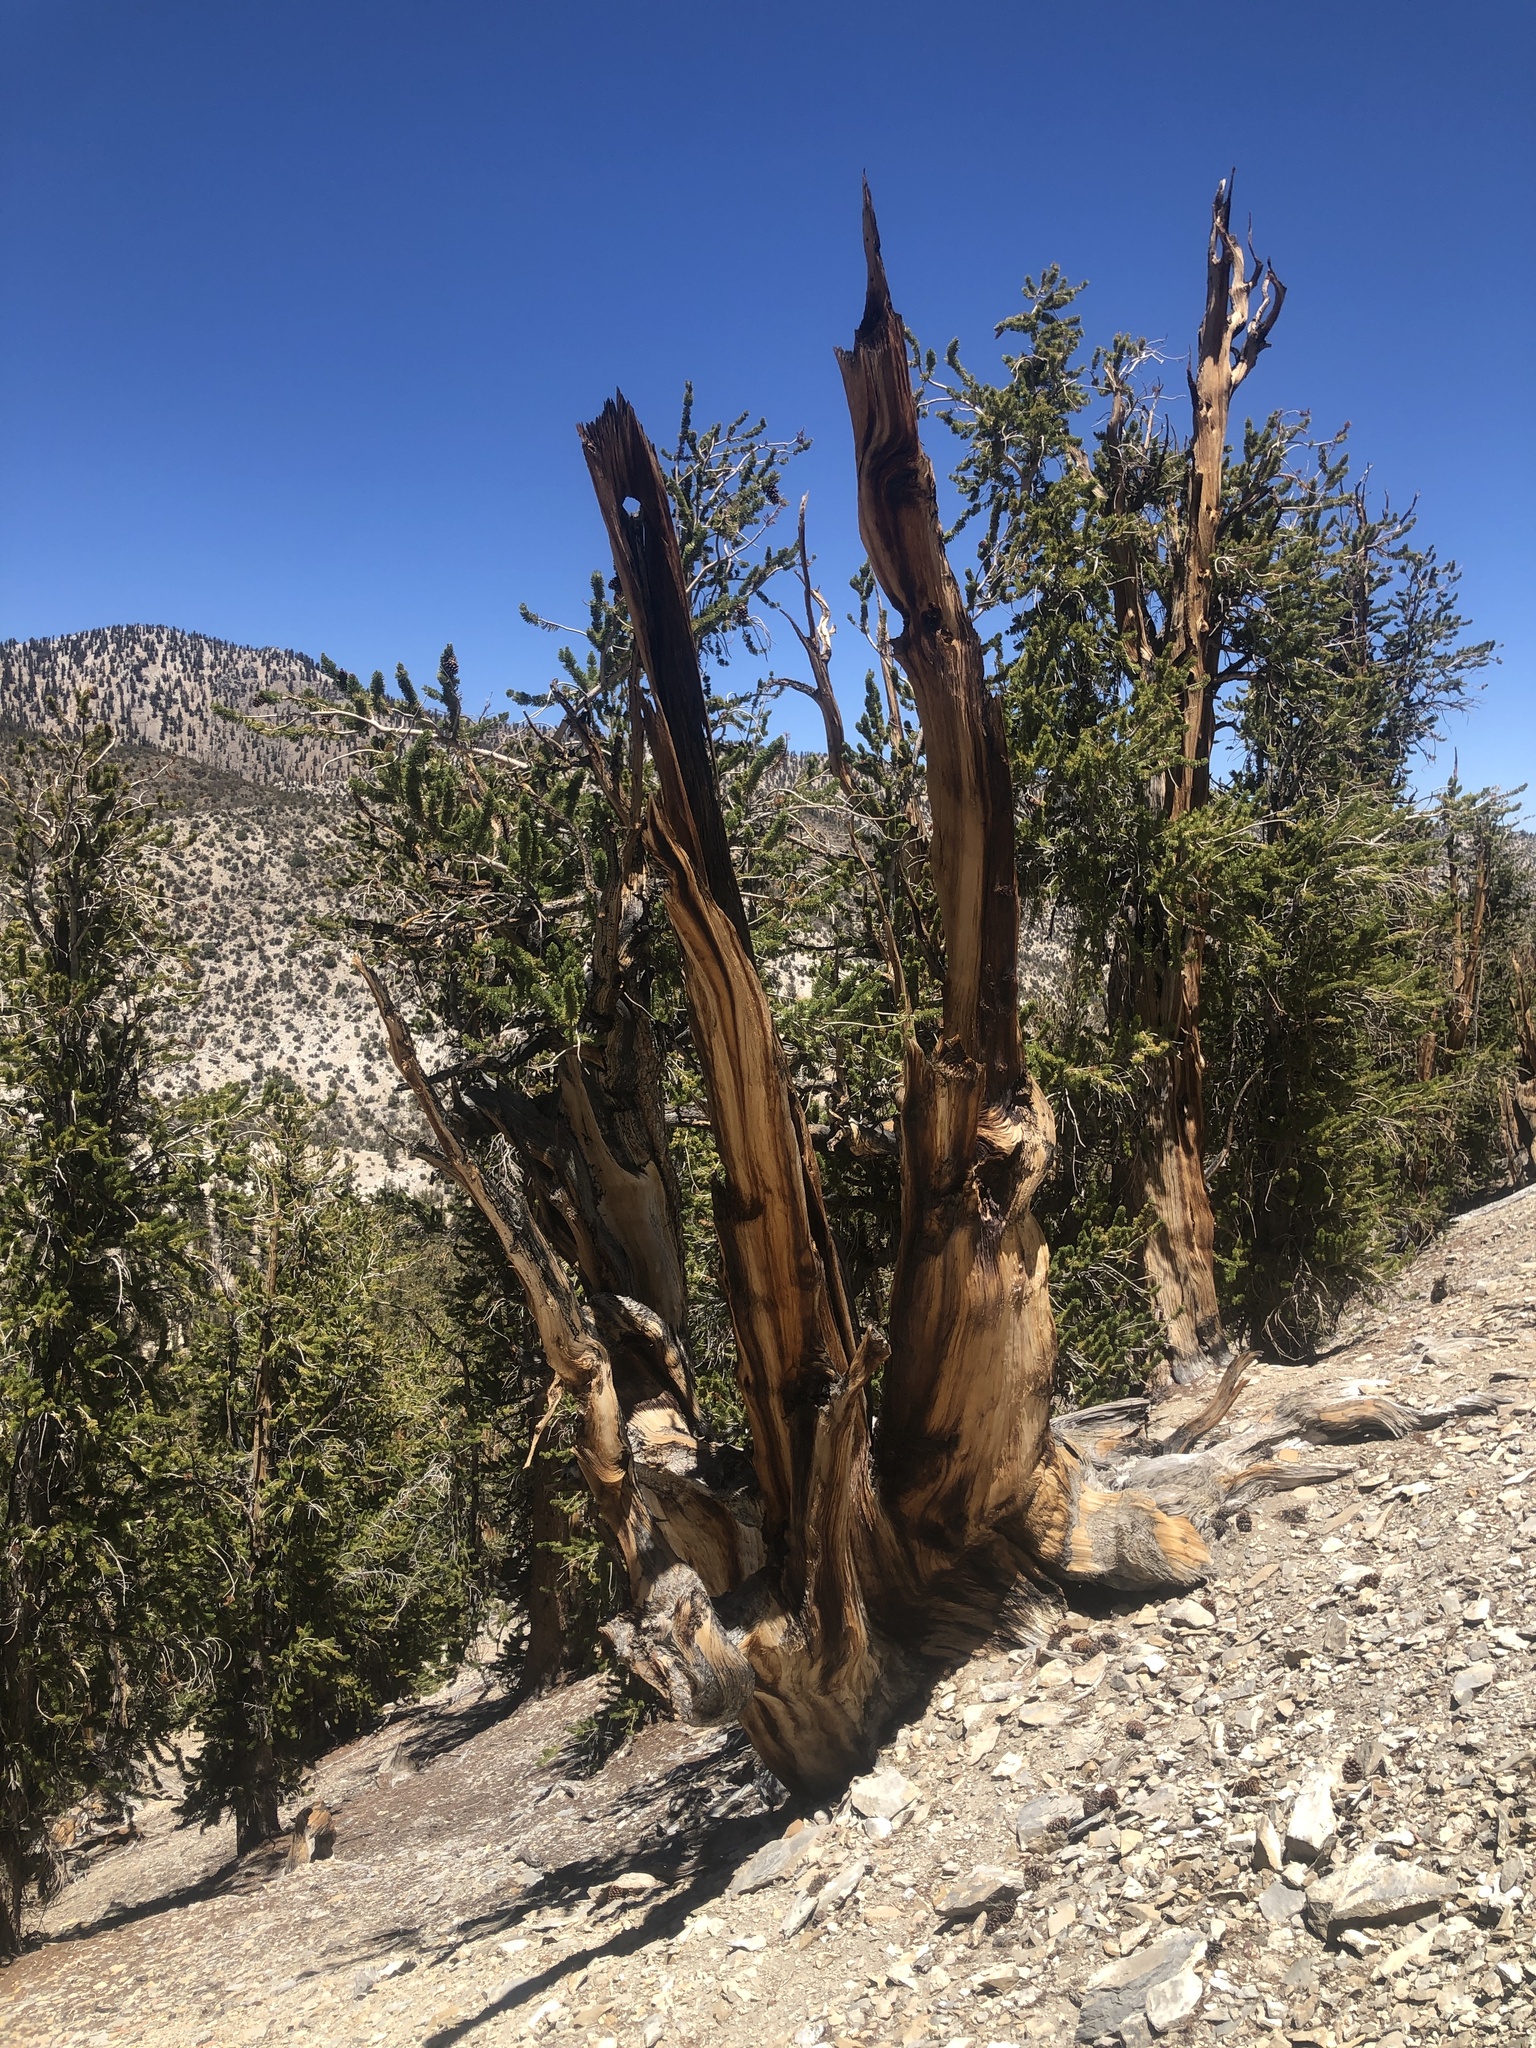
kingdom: Plantae
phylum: Tracheophyta
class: Pinopsida
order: Pinales
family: Pinaceae
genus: Pinus
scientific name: Pinus longaeva
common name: Intermountain bristlecone pine
